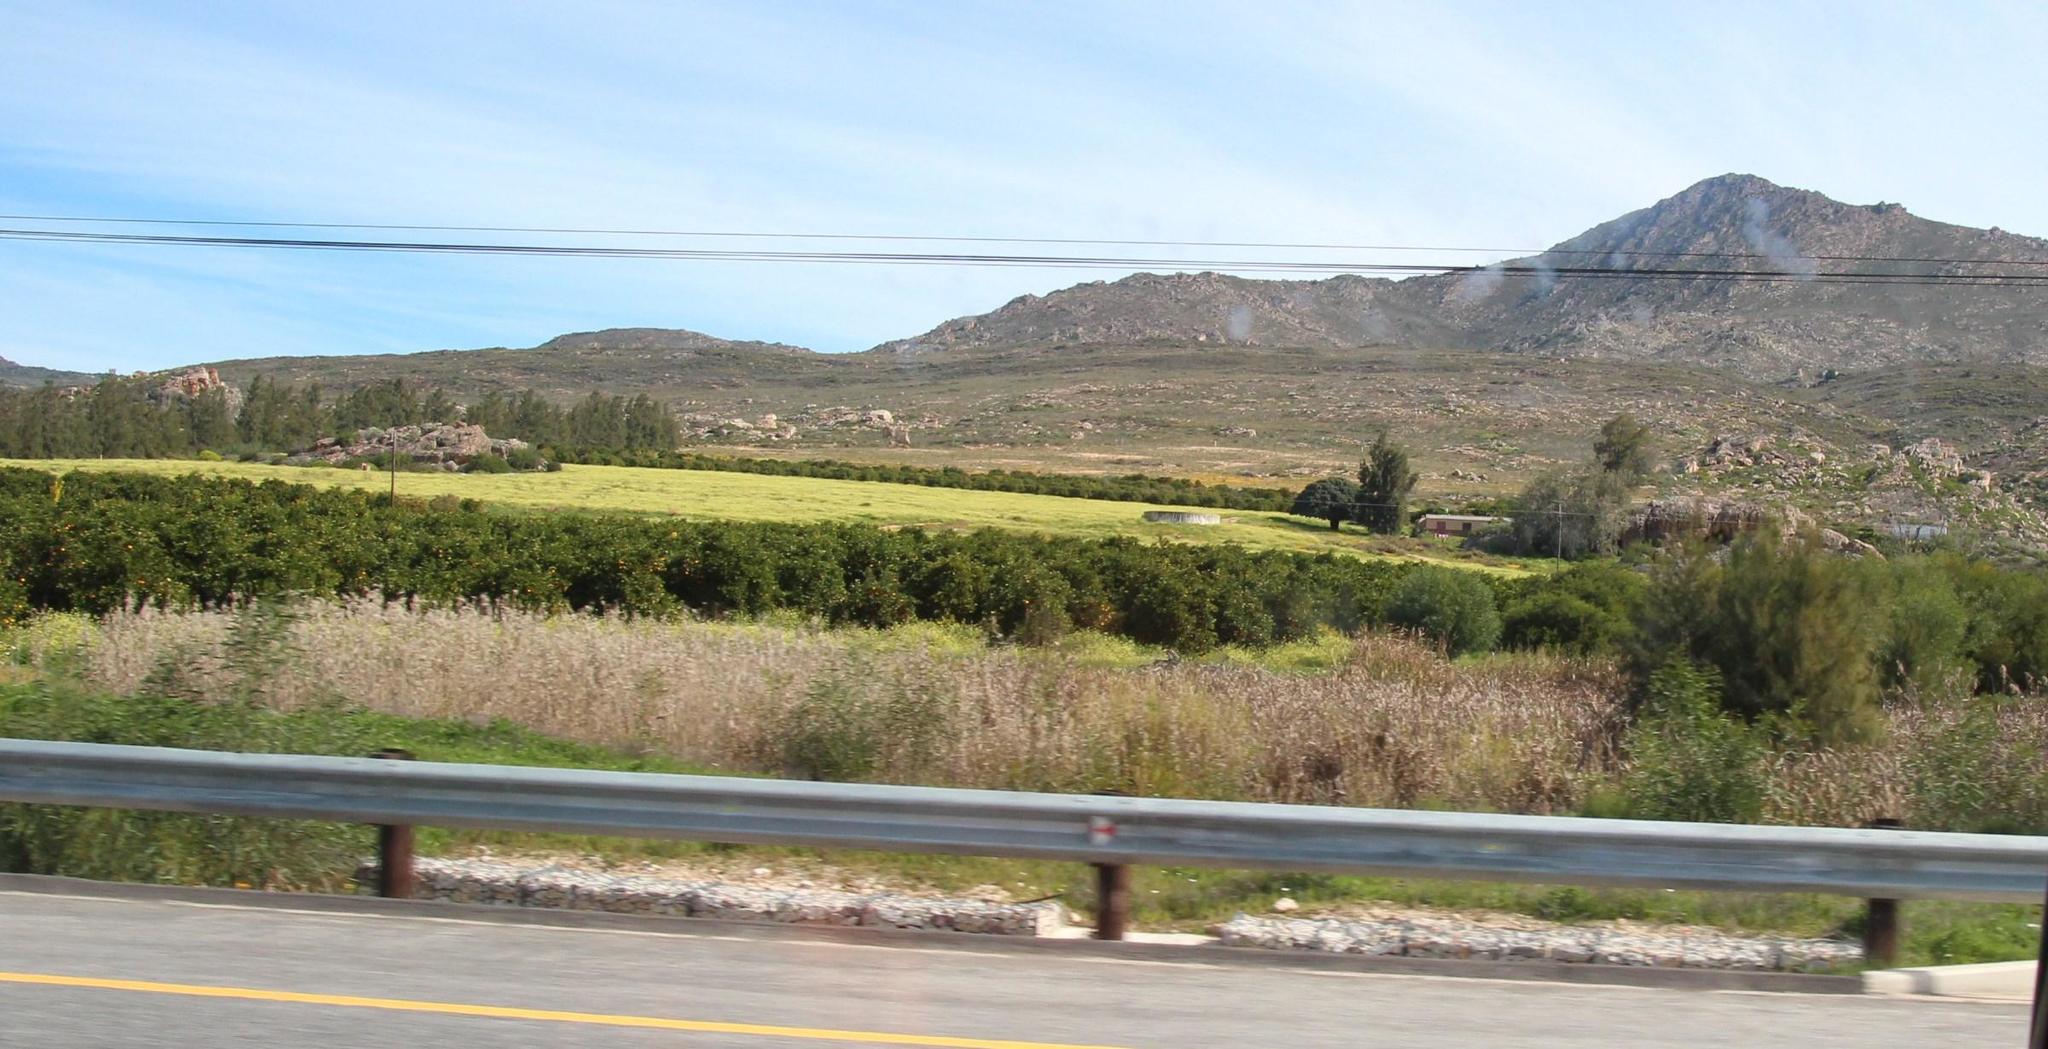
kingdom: Plantae
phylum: Tracheophyta
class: Magnoliopsida
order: Fagales
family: Casuarinaceae
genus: Casuarina
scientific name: Casuarina cunninghamiana
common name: River sheoak
